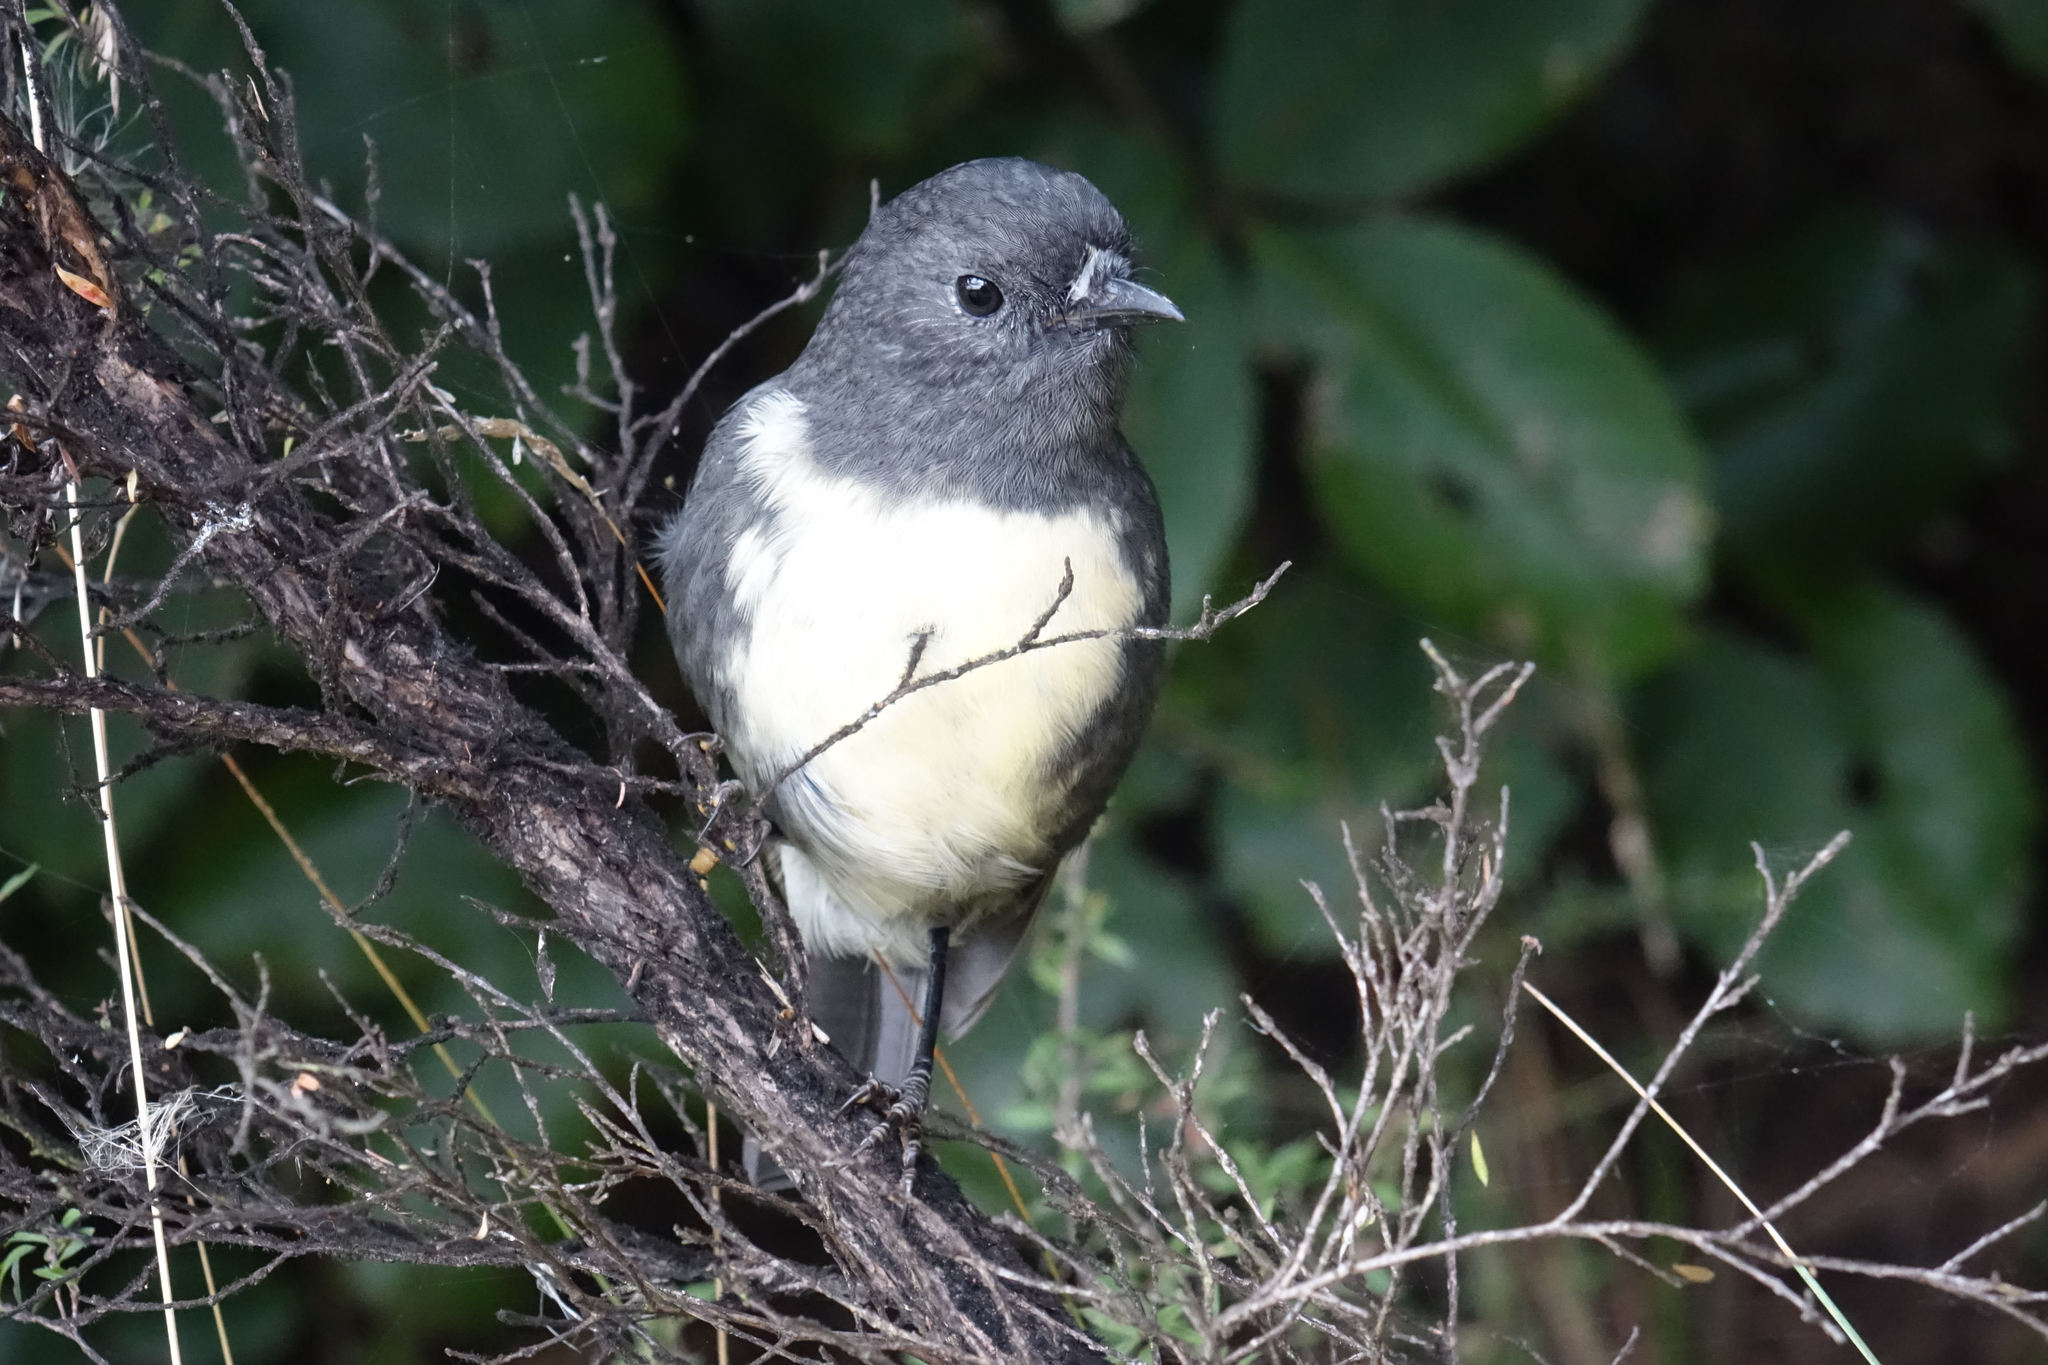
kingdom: Animalia
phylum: Chordata
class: Aves
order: Passeriformes
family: Petroicidae
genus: Petroica
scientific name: Petroica australis
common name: New zealand robin
